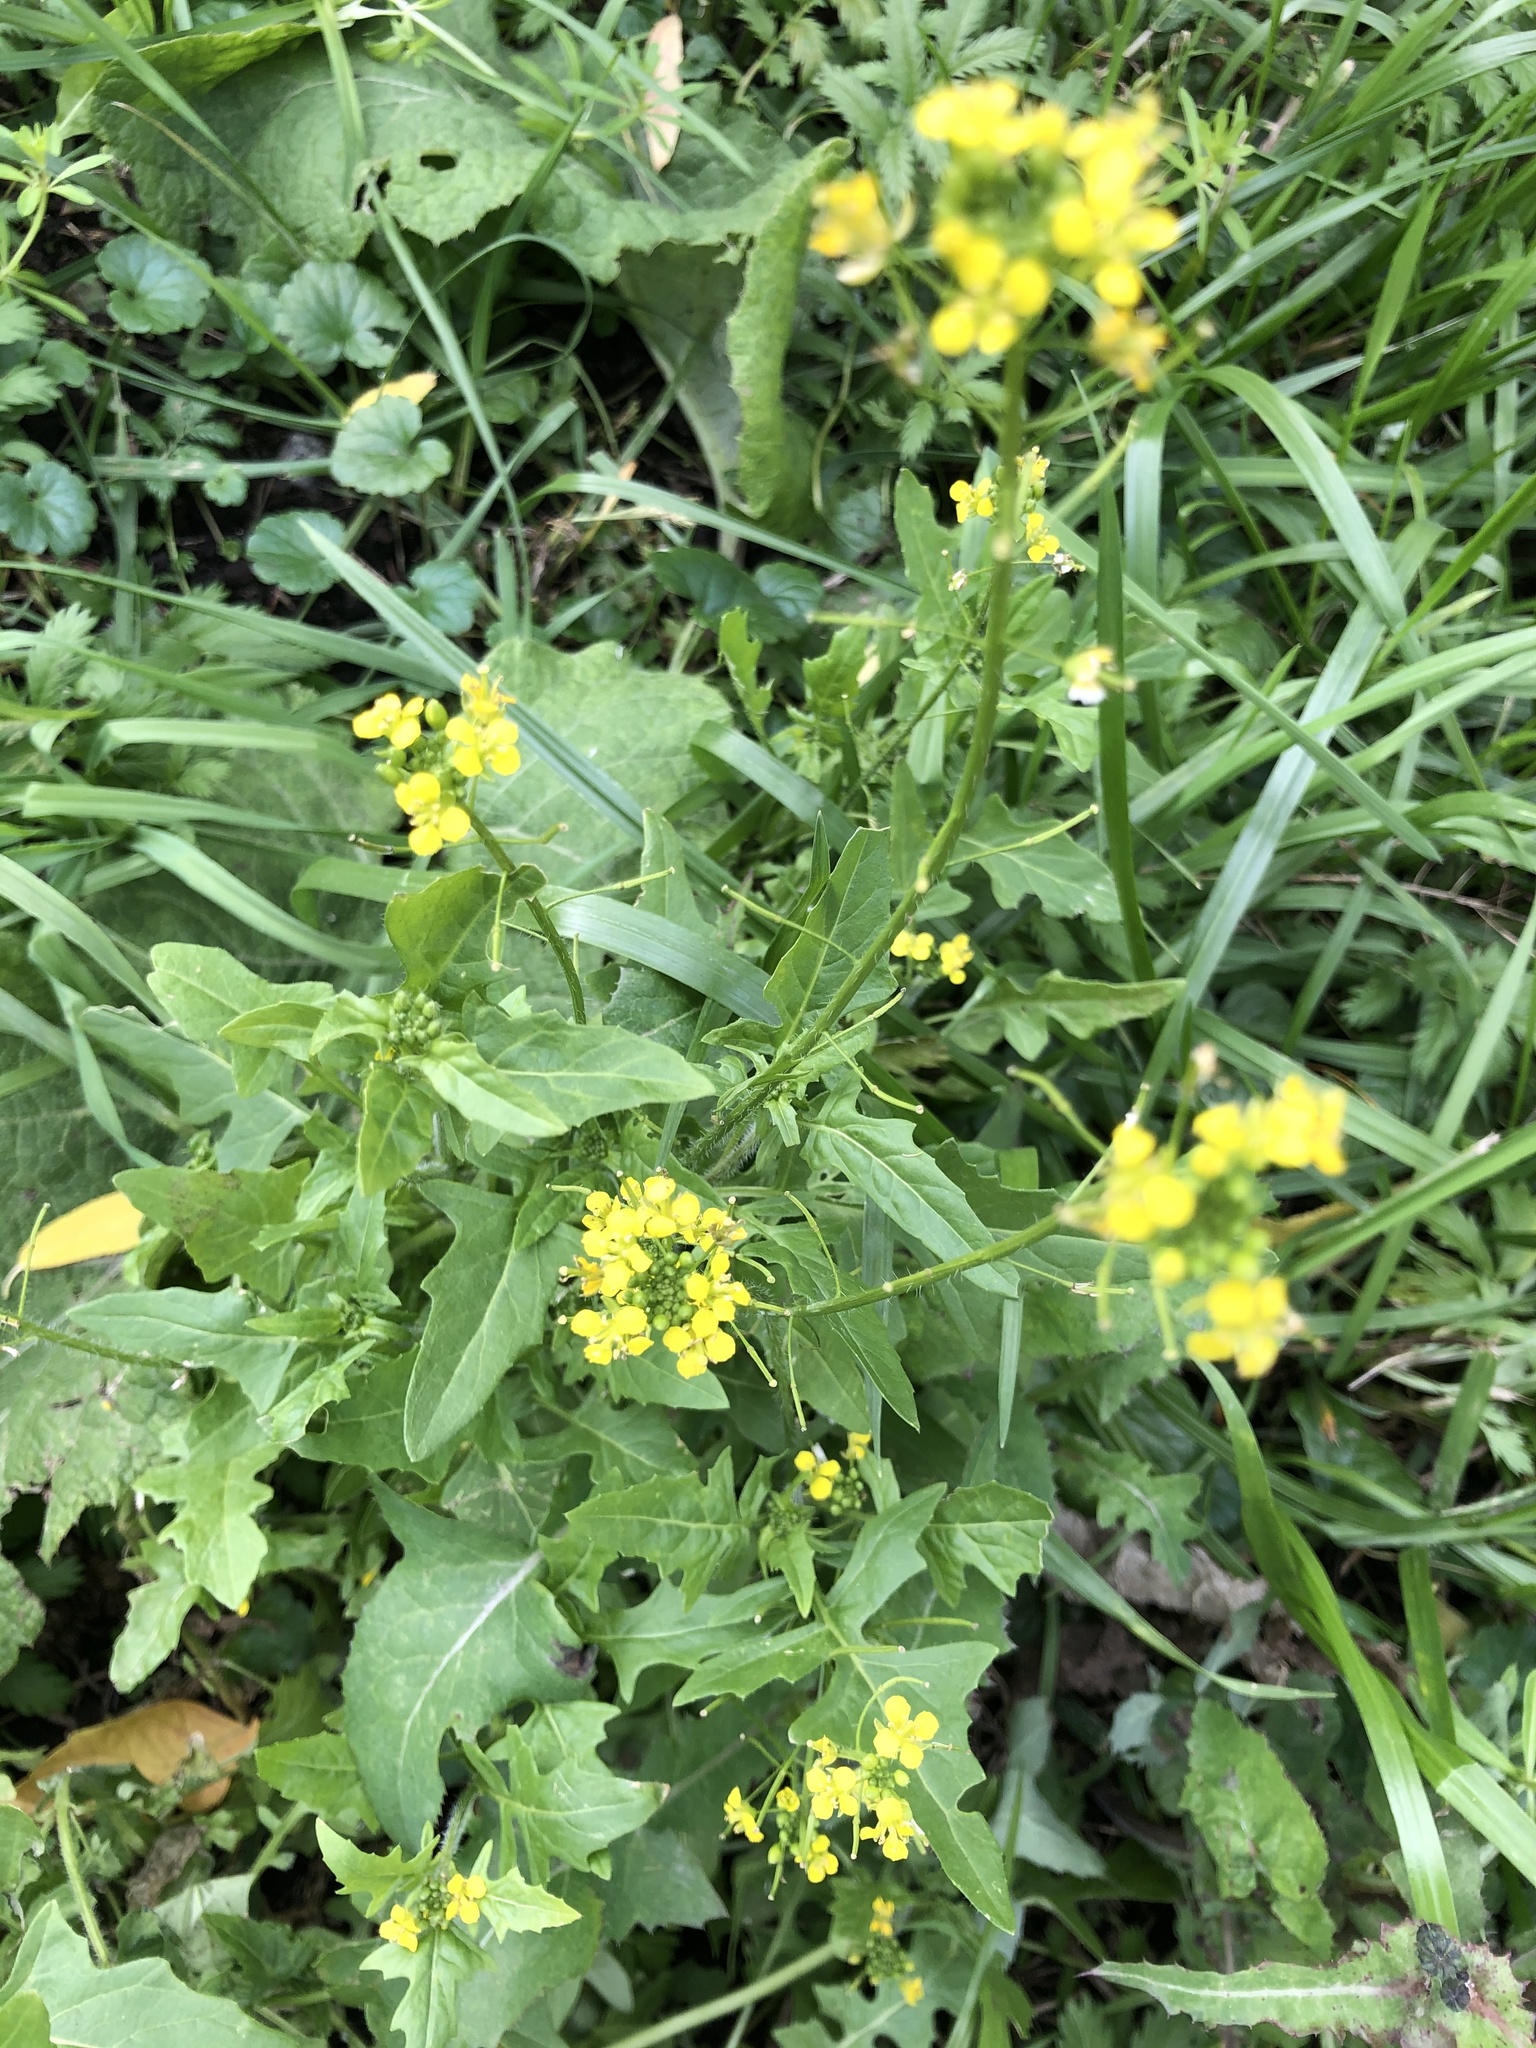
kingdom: Plantae
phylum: Tracheophyta
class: Magnoliopsida
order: Brassicales
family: Brassicaceae
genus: Sisymbrium
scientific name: Sisymbrium loeselii
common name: False london-rocket
